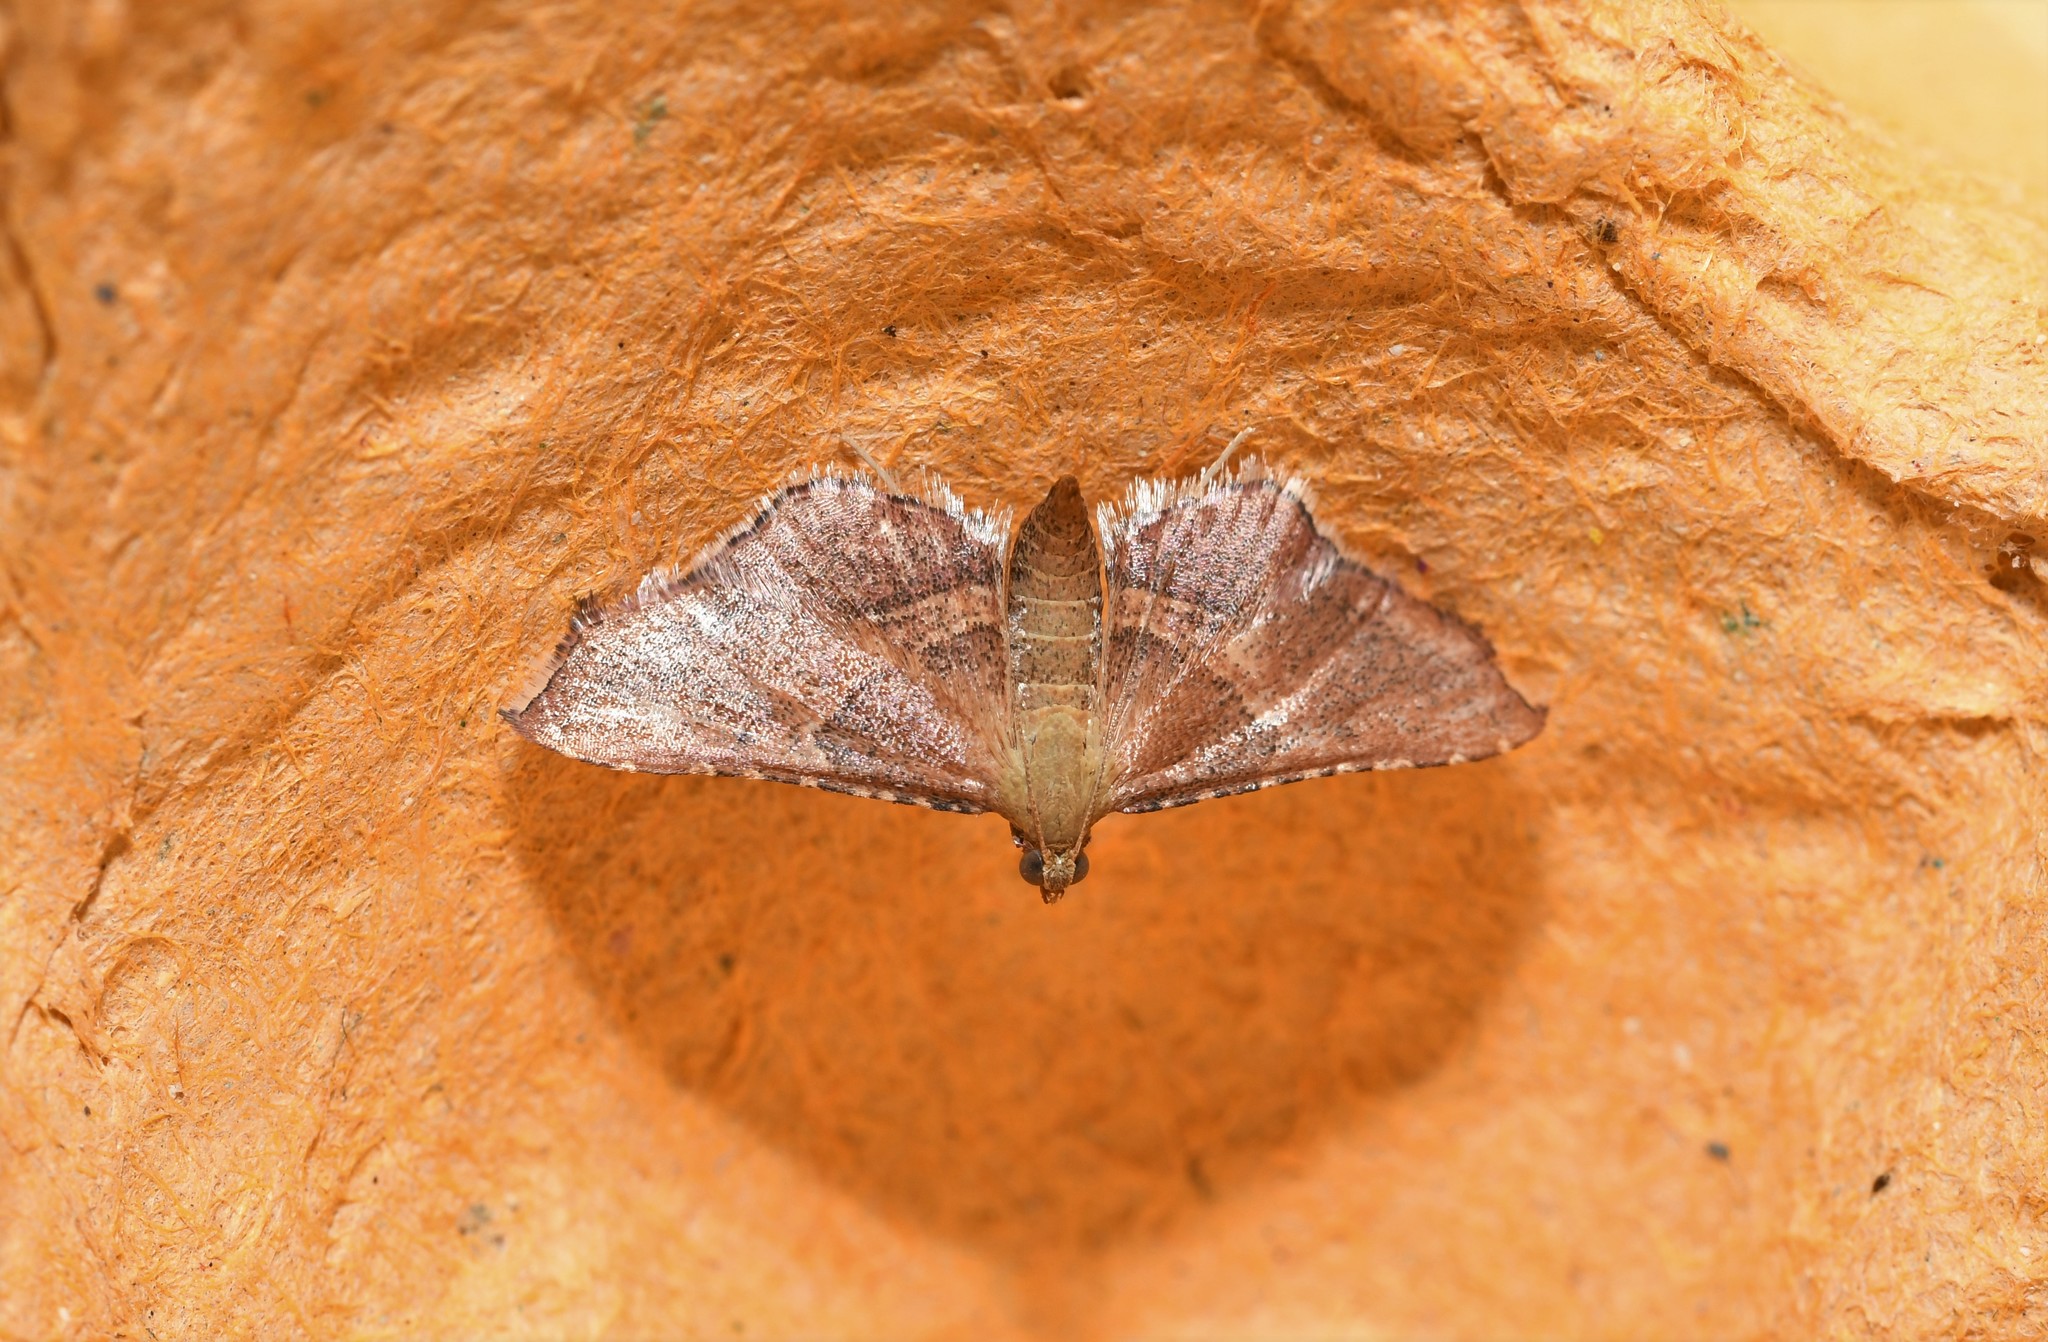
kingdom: Animalia
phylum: Arthropoda
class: Insecta
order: Lepidoptera
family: Pyralidae
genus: Endotricha
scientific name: Endotricha flammealis
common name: Rosy tabby
